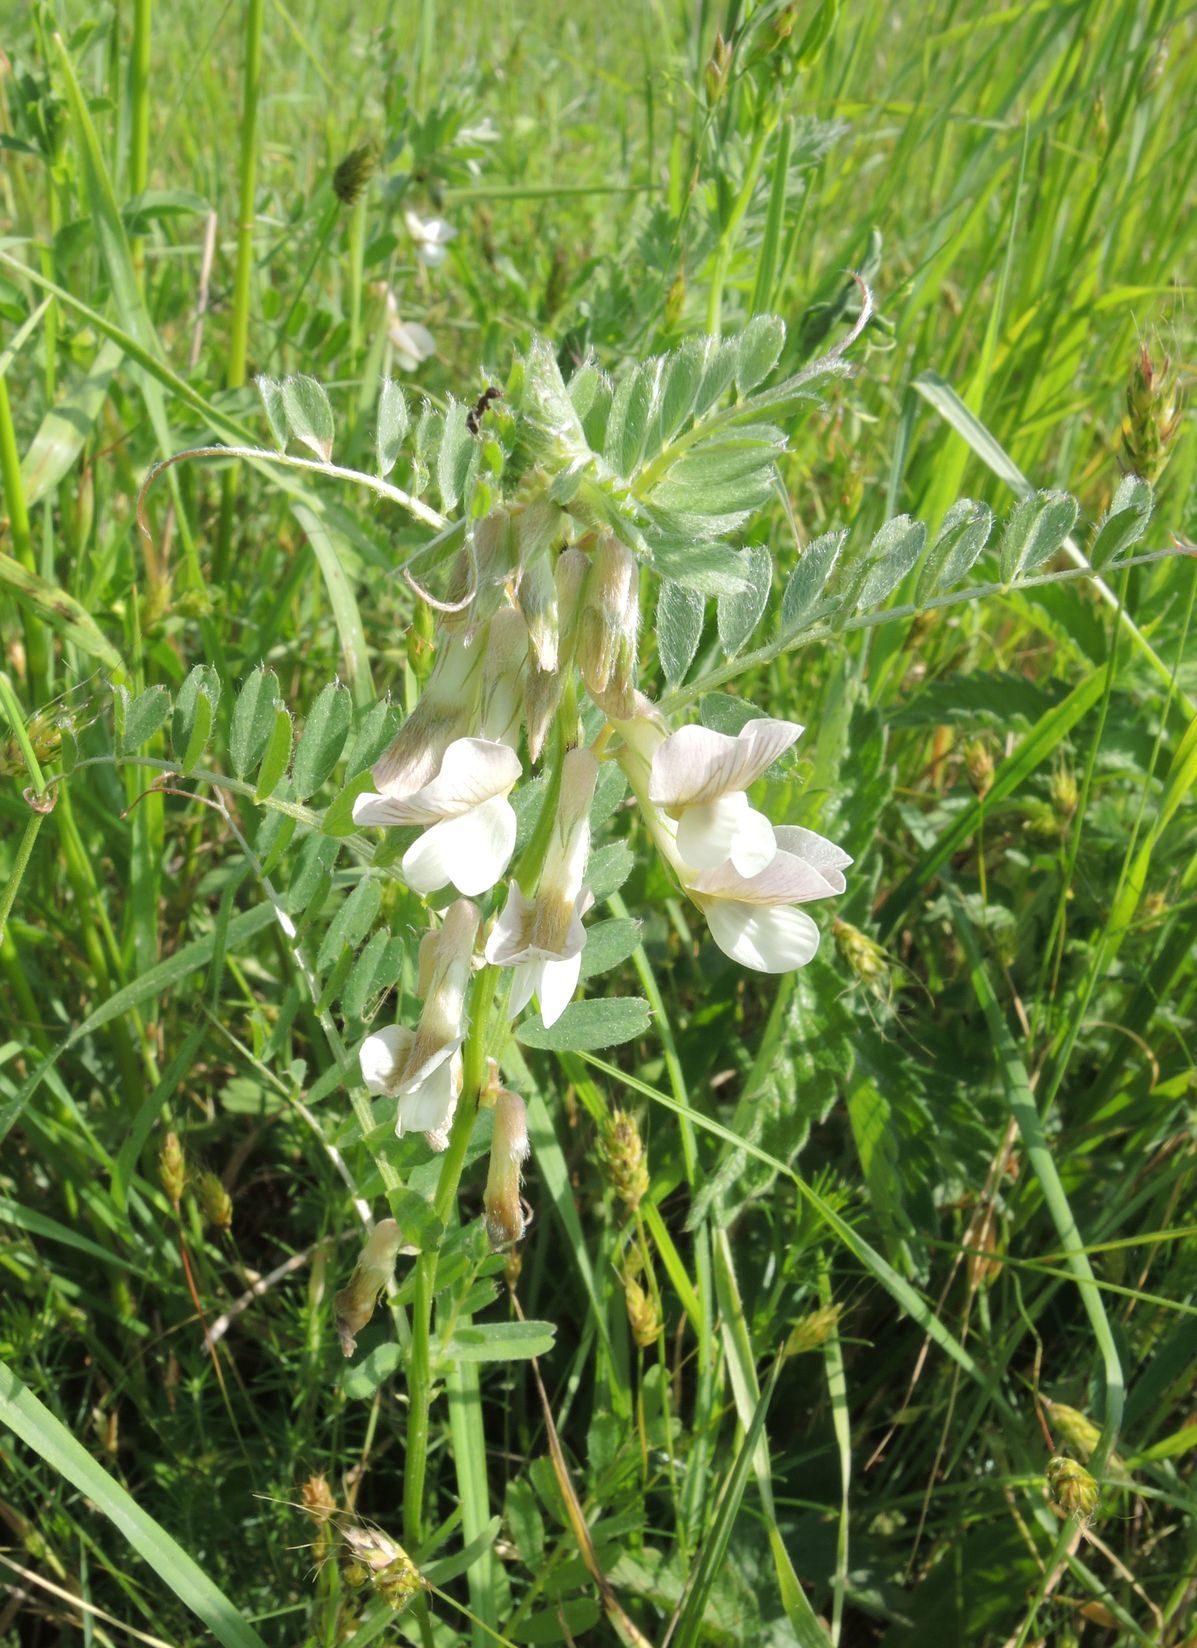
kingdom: Plantae
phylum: Tracheophyta
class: Magnoliopsida
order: Fabales
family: Fabaceae
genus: Vicia
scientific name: Vicia pannonica
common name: Hungarian vetch
